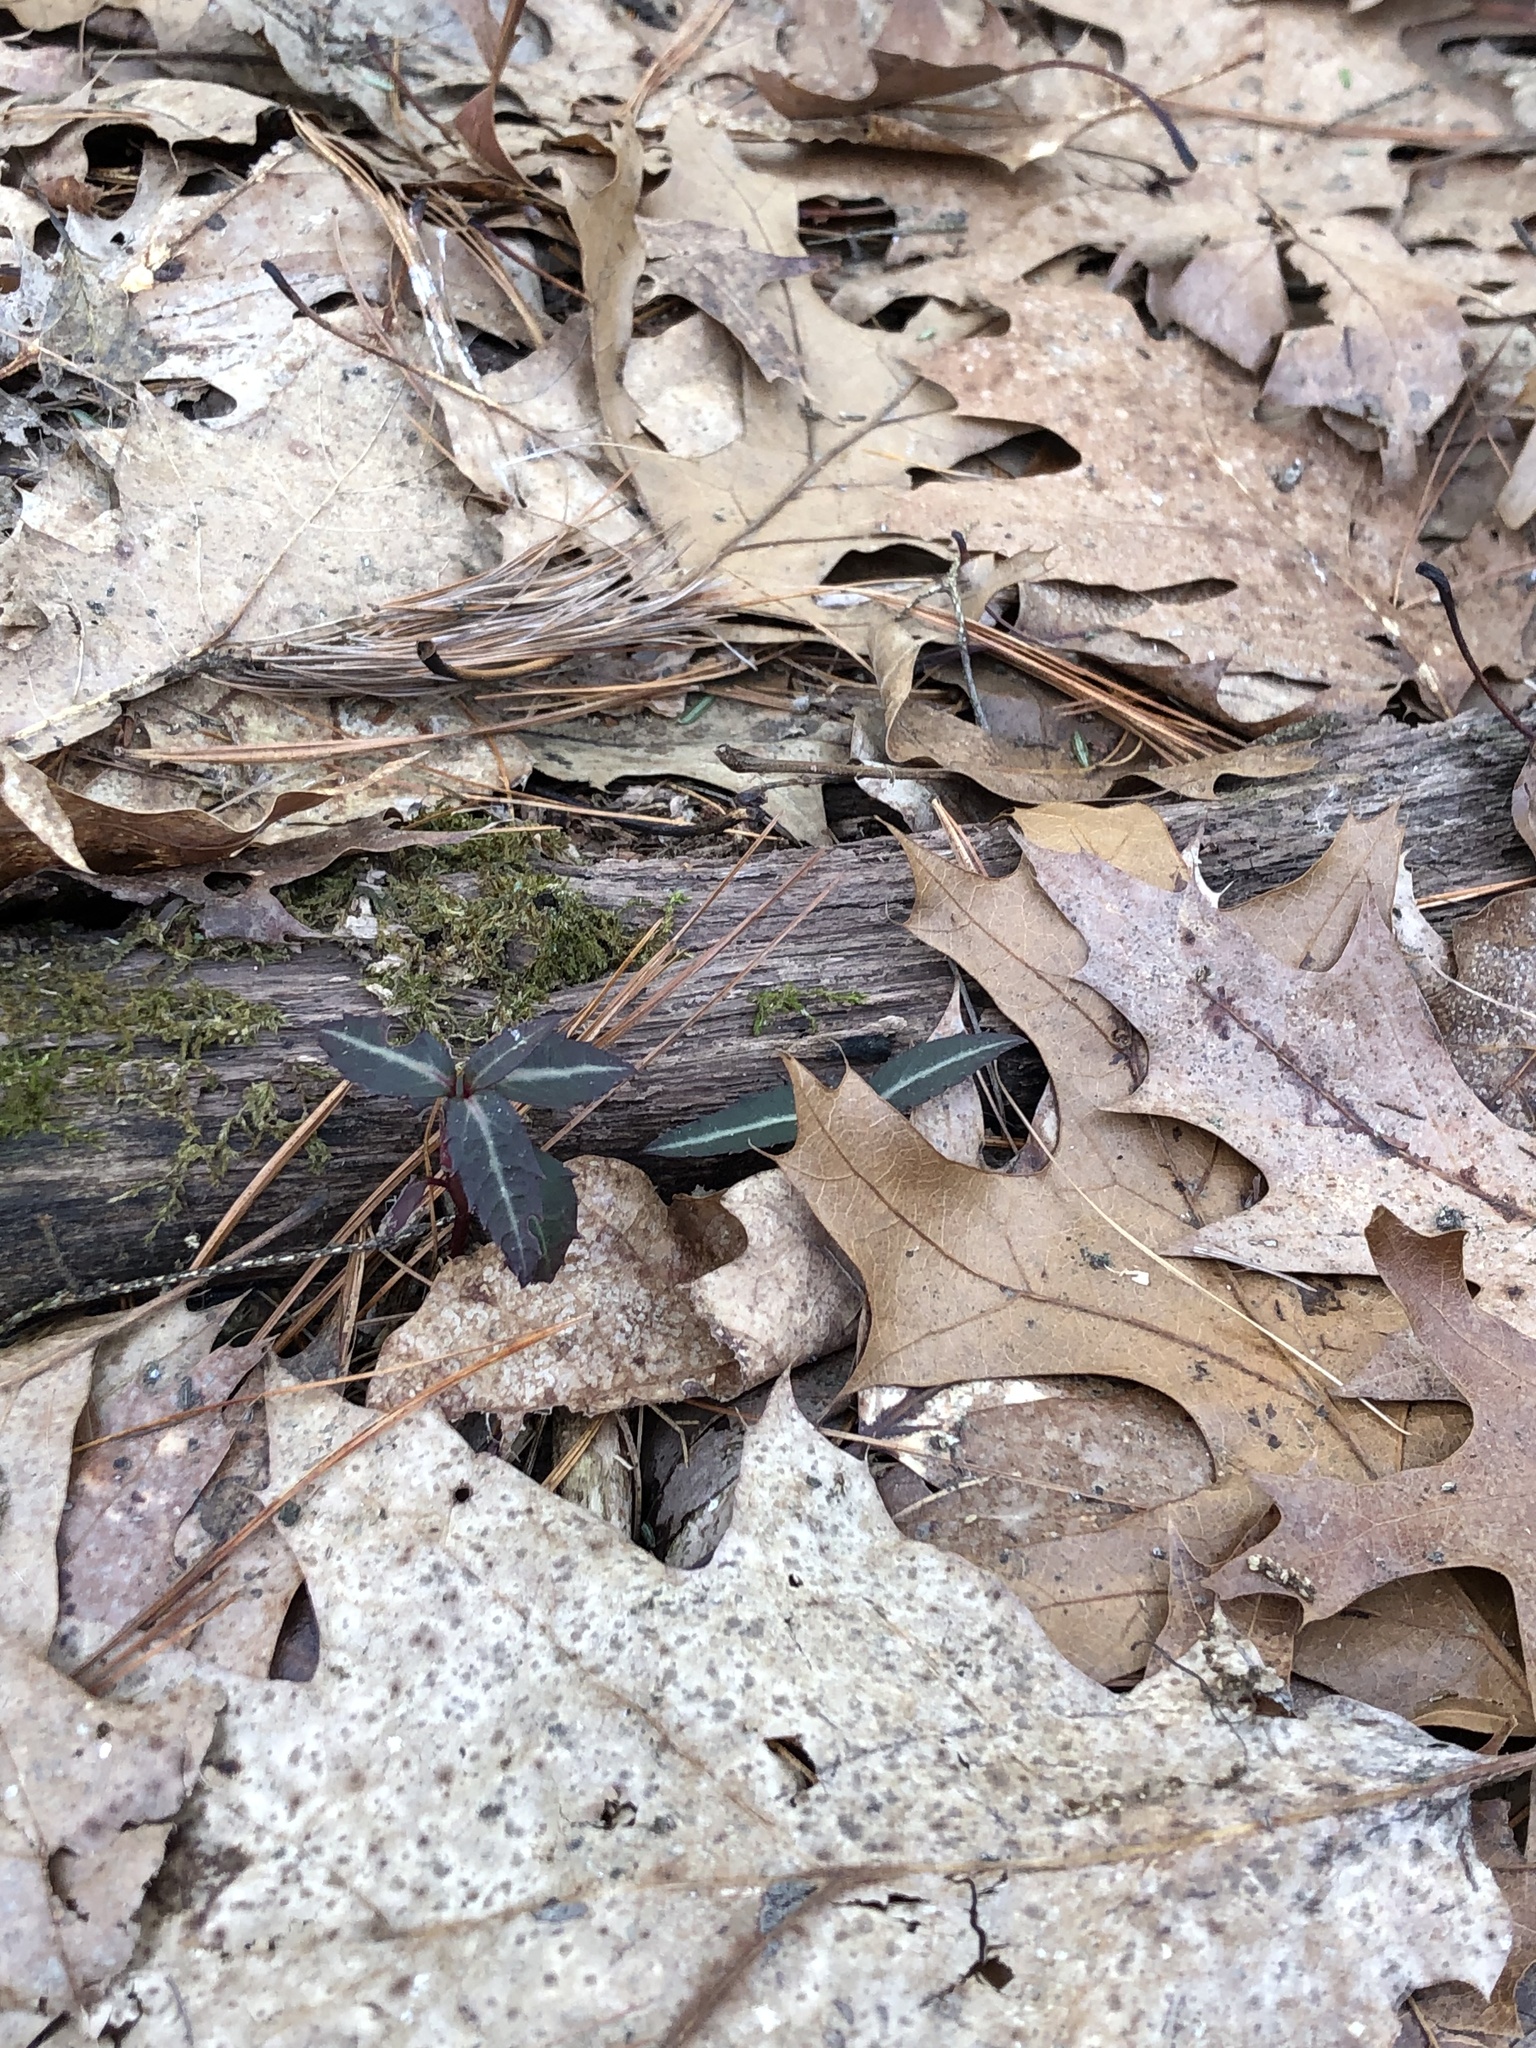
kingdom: Plantae
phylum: Tracheophyta
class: Magnoliopsida
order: Ericales
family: Ericaceae
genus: Chimaphila
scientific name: Chimaphila maculata
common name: Spotted pipsissewa
